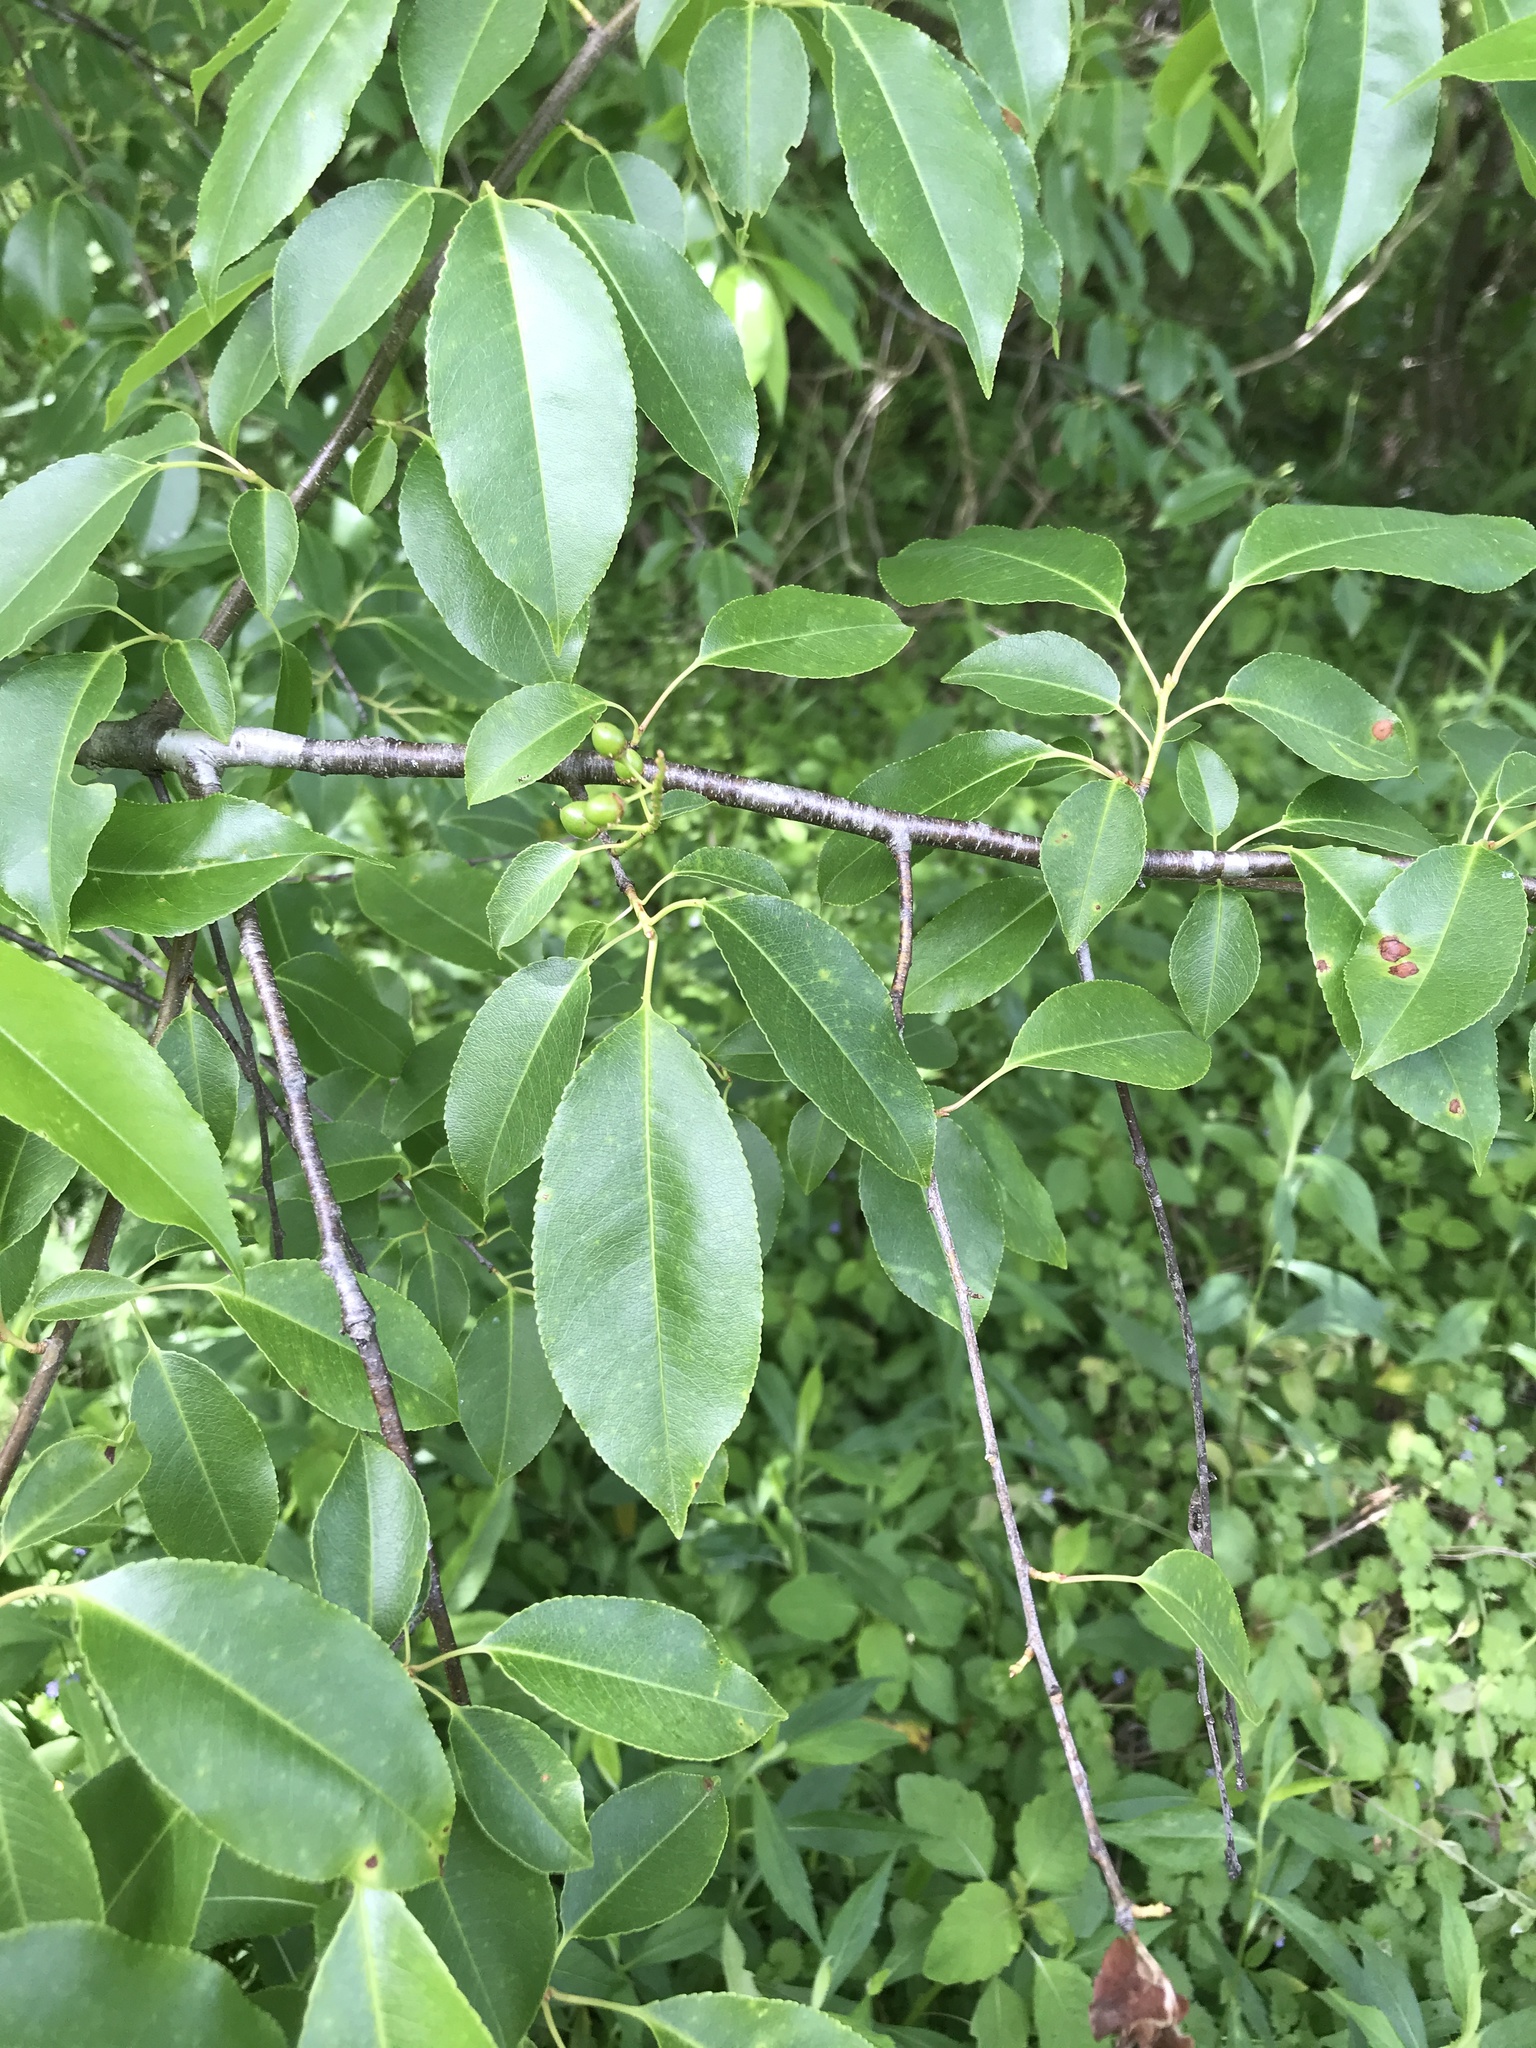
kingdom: Plantae
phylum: Tracheophyta
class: Magnoliopsida
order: Rosales
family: Rosaceae
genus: Prunus
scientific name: Prunus serotina
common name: Black cherry
